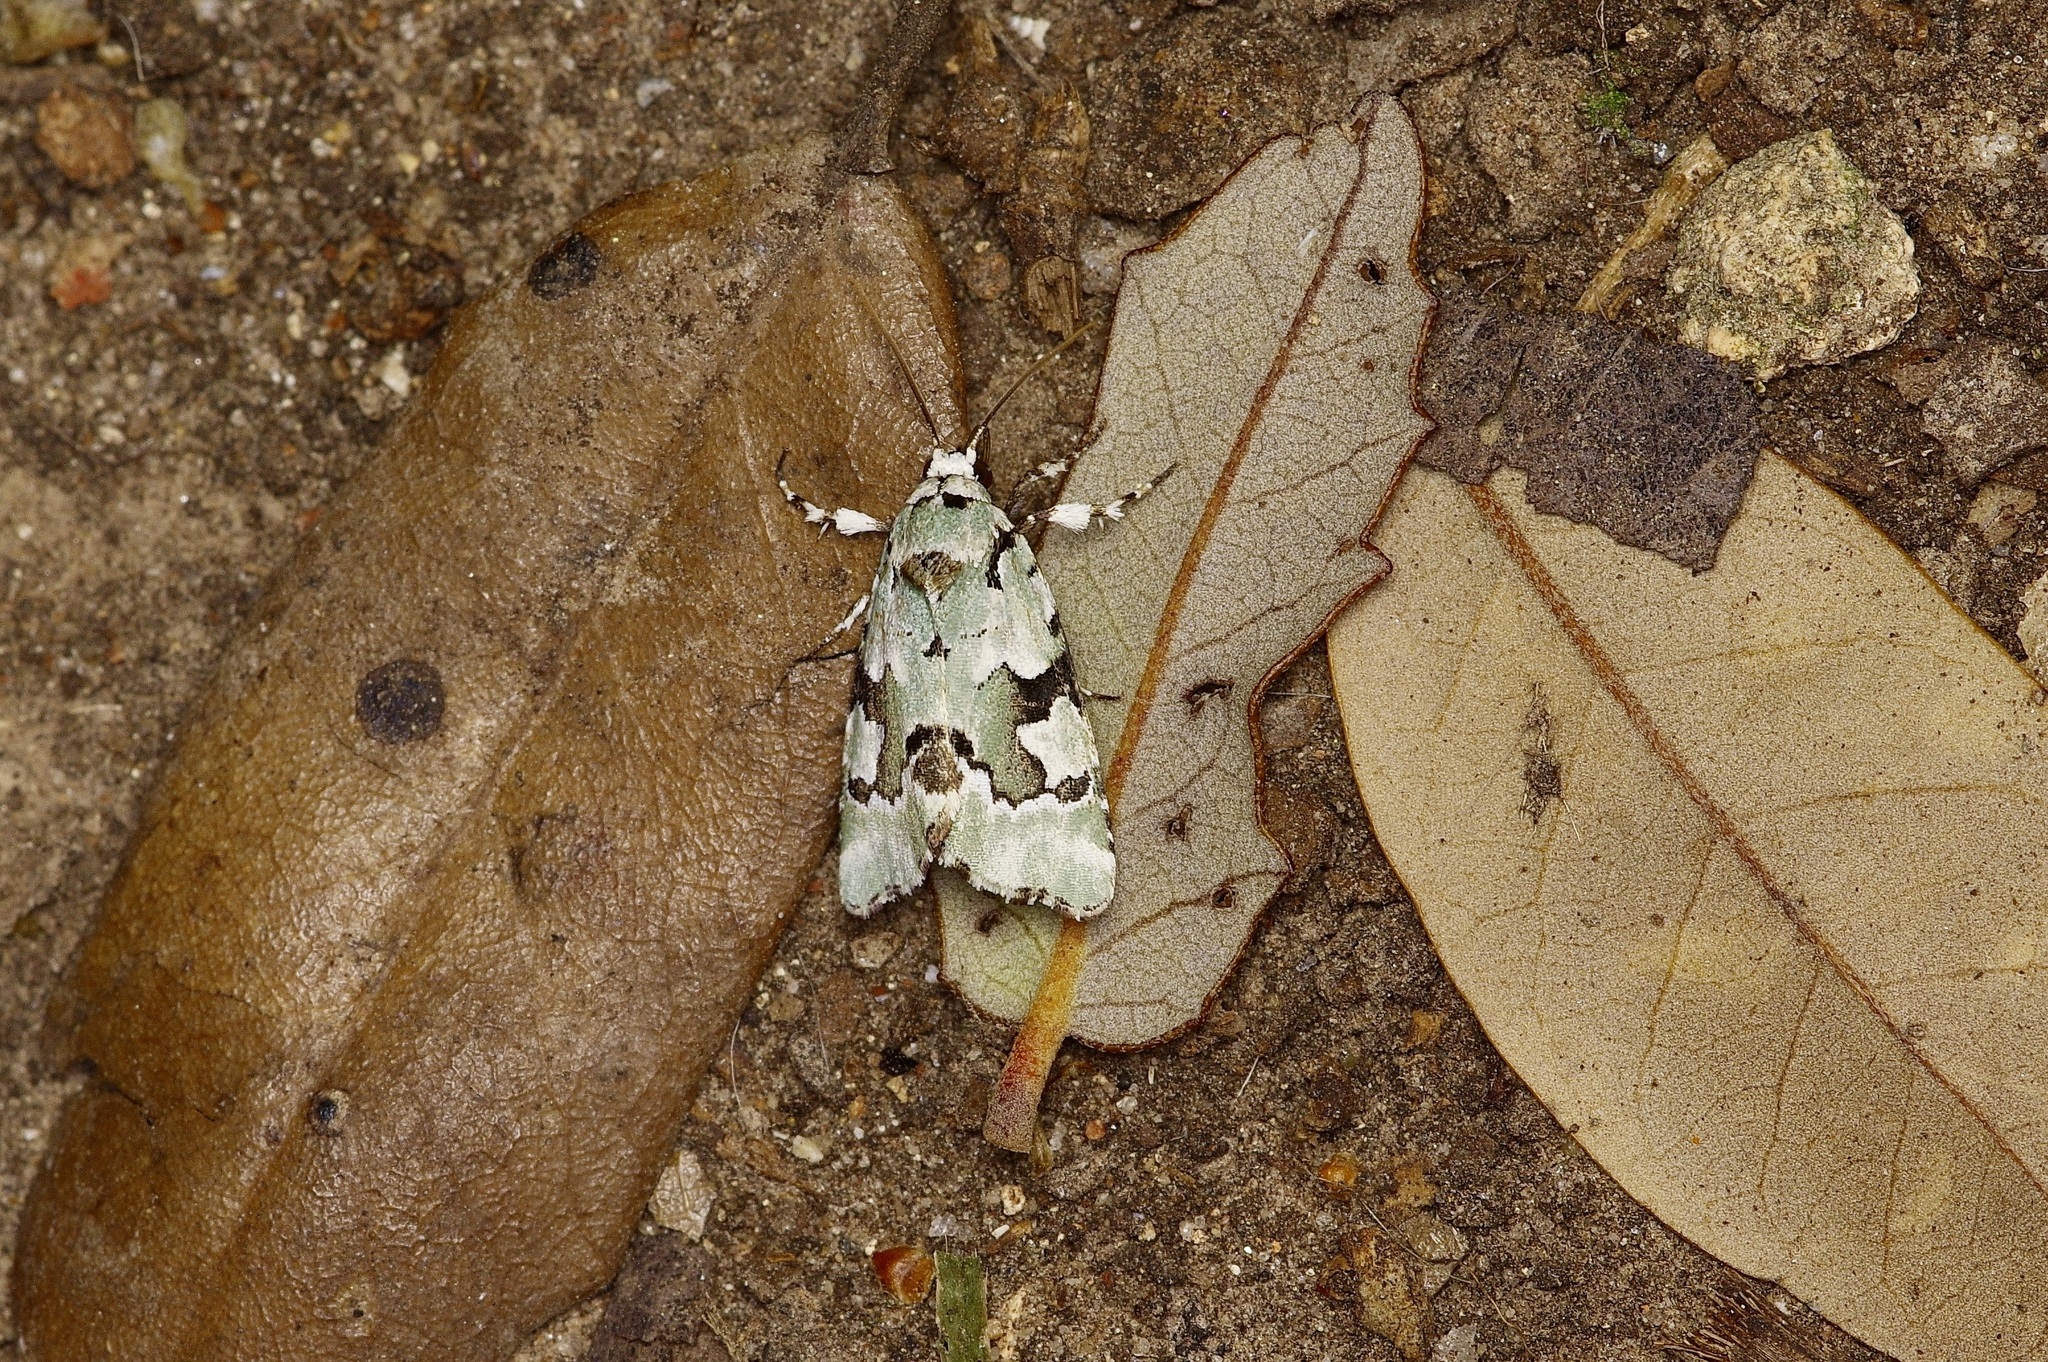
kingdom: Animalia
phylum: Arthropoda
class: Insecta
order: Lepidoptera
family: Noctuidae
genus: Emarginea
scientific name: Emarginea percara
